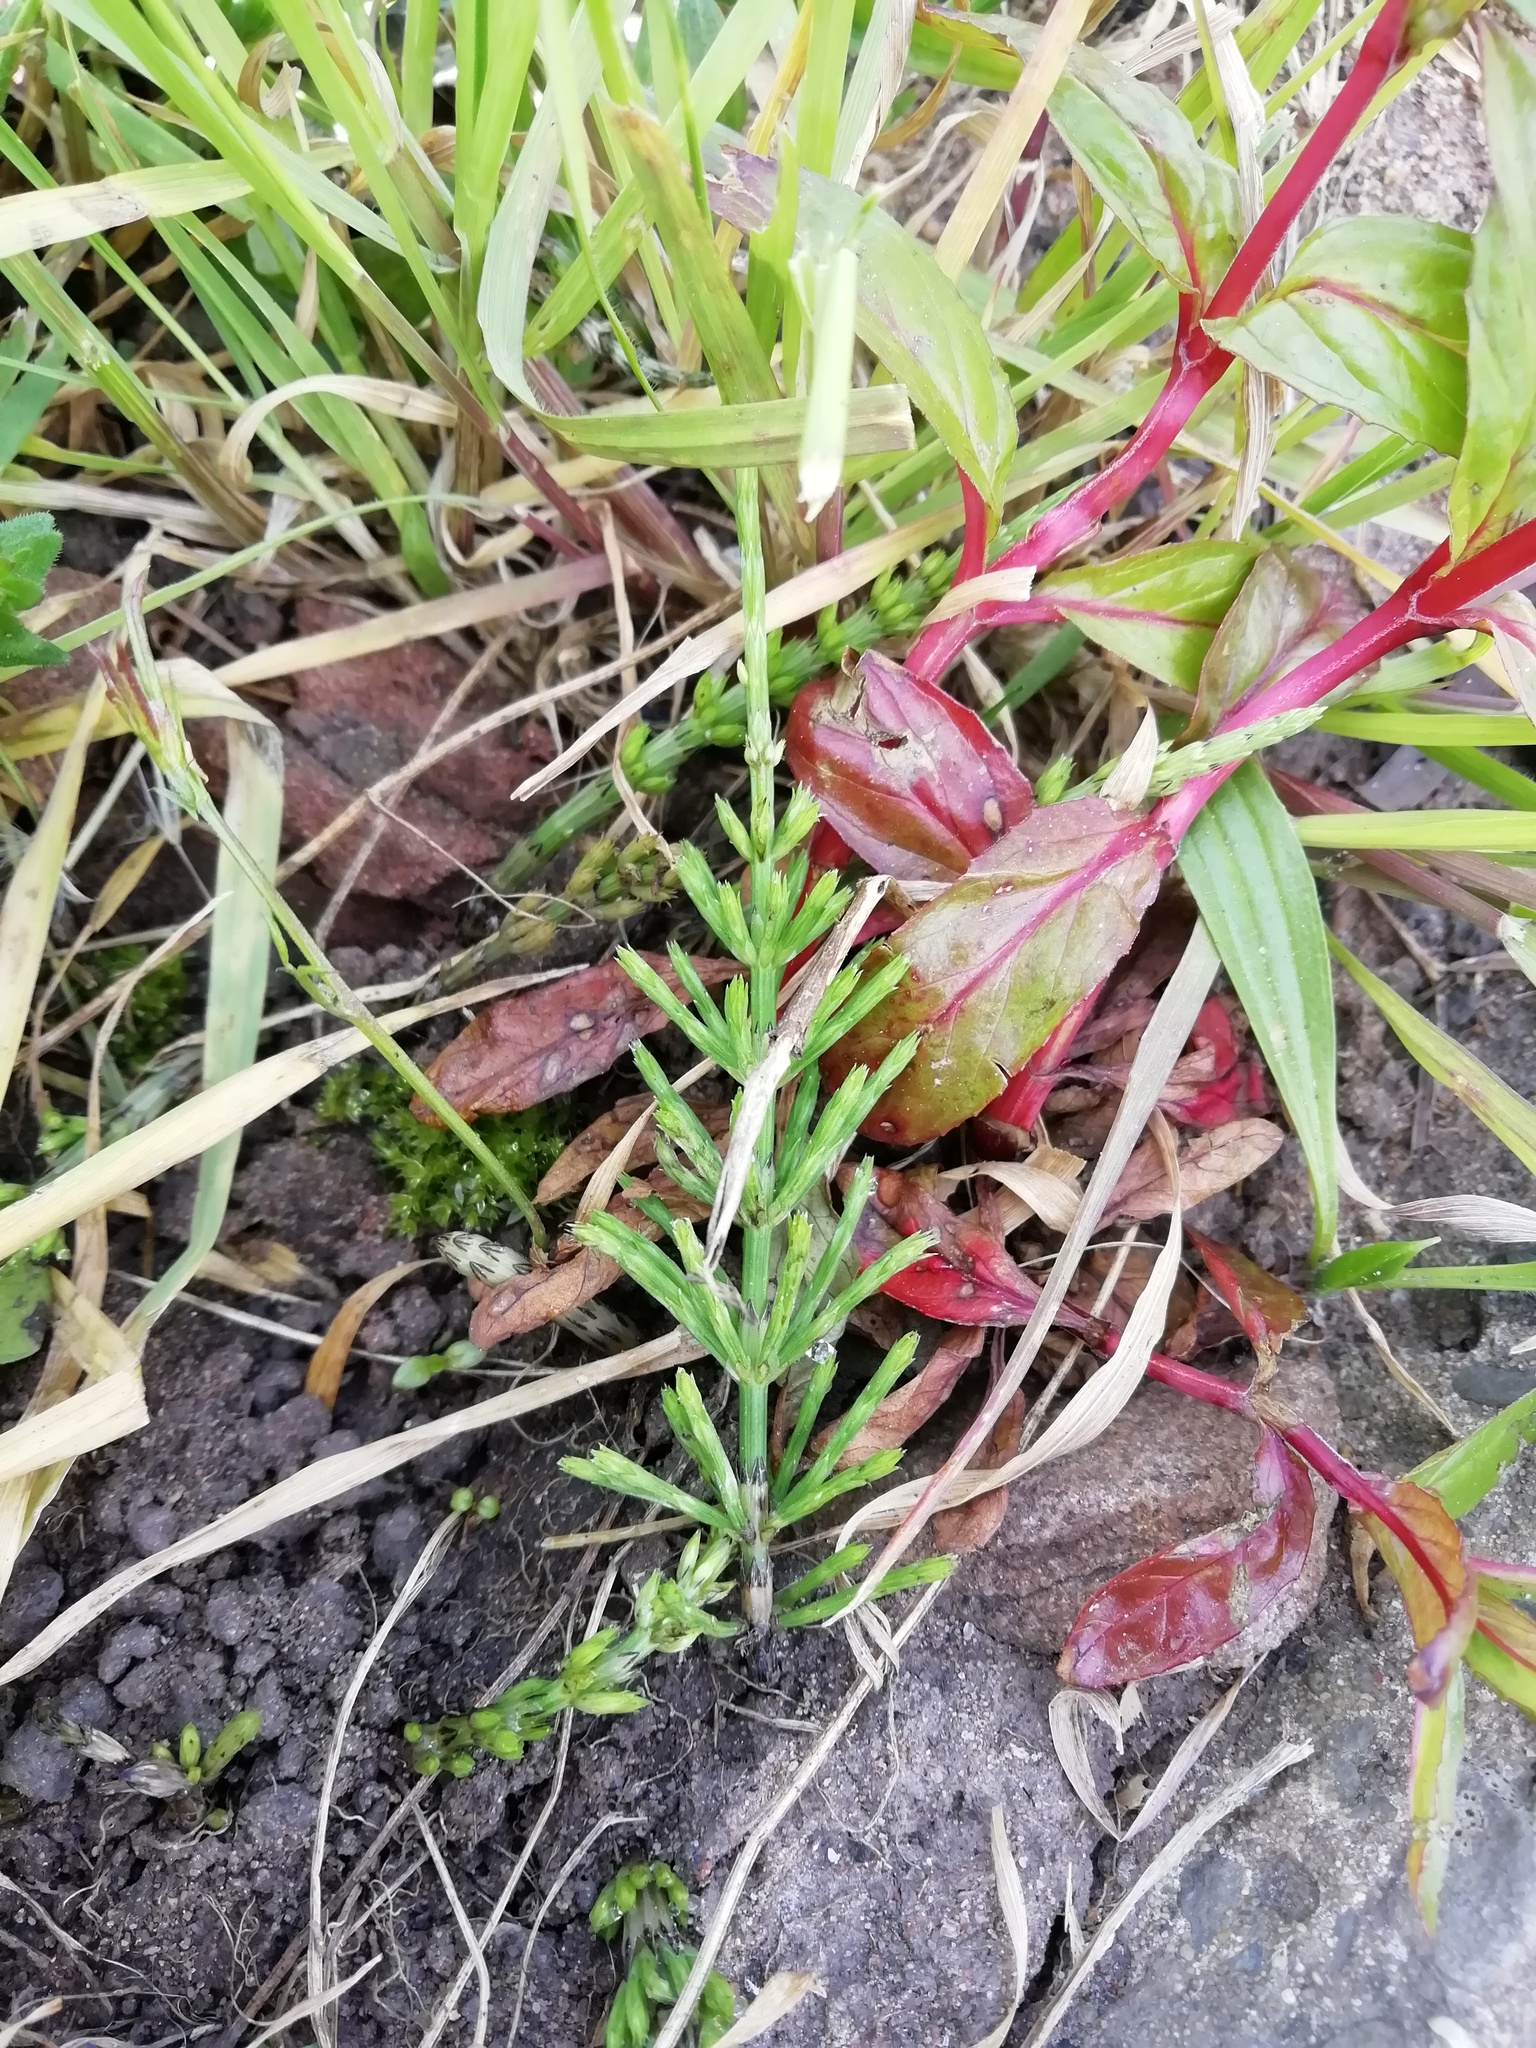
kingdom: Plantae
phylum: Tracheophyta
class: Polypodiopsida
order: Equisetales
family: Equisetaceae
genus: Equisetum
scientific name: Equisetum arvense
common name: Field horsetail
